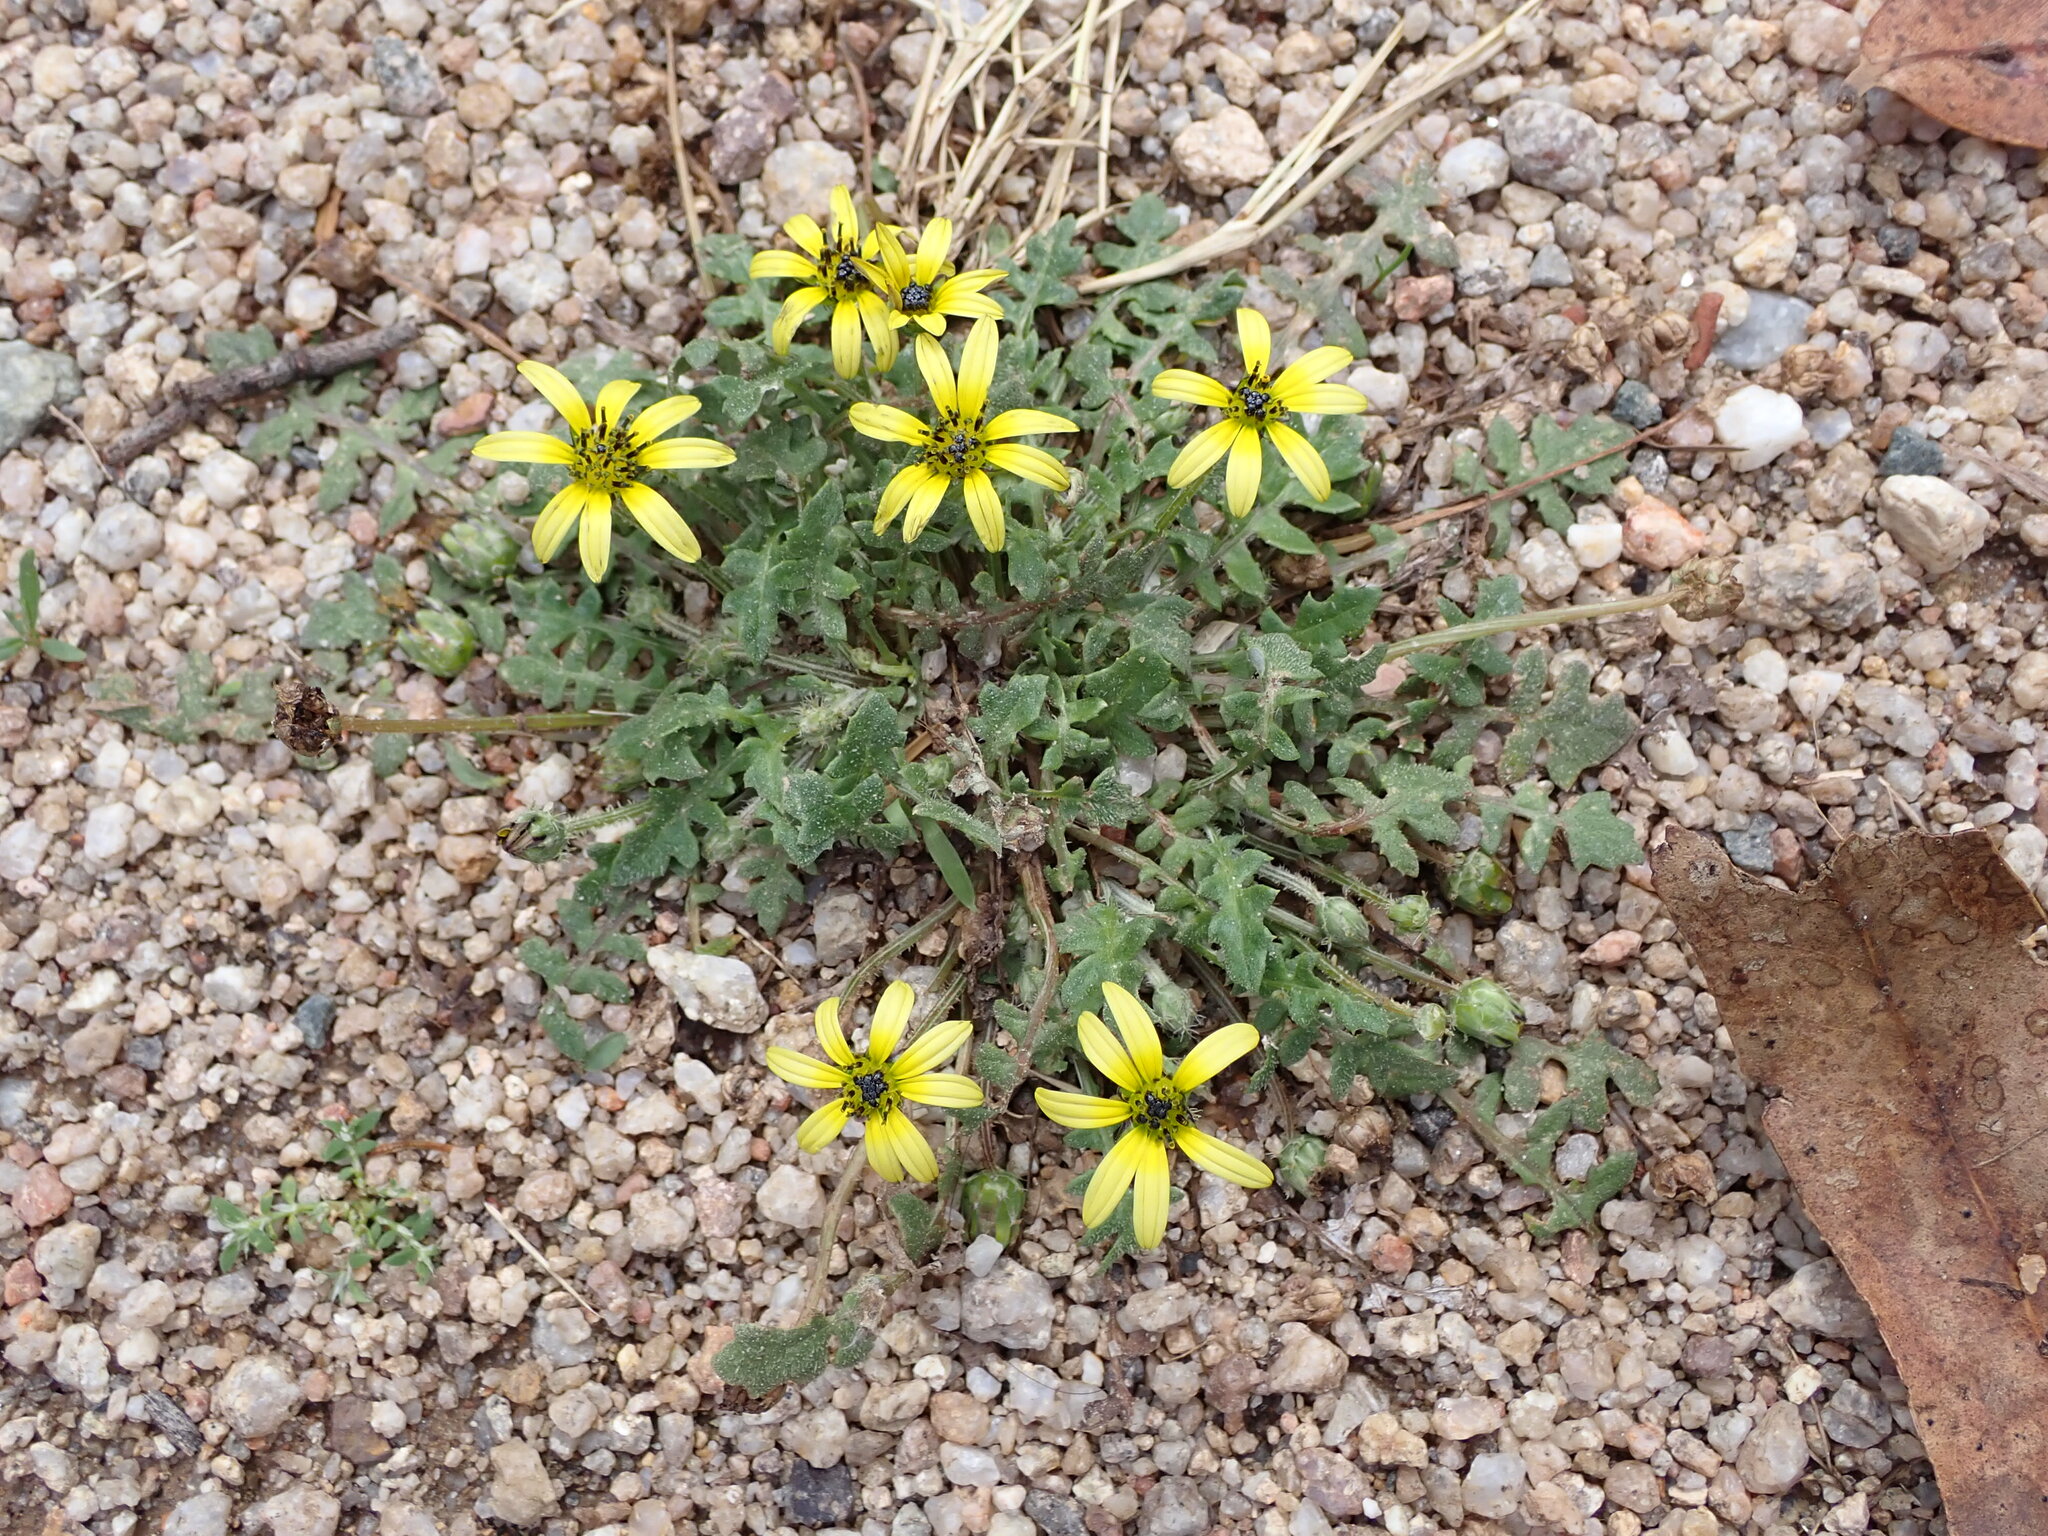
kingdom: Plantae
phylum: Tracheophyta
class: Magnoliopsida
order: Asterales
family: Asteraceae
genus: Arctotheca
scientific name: Arctotheca calendula
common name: Capeweed
